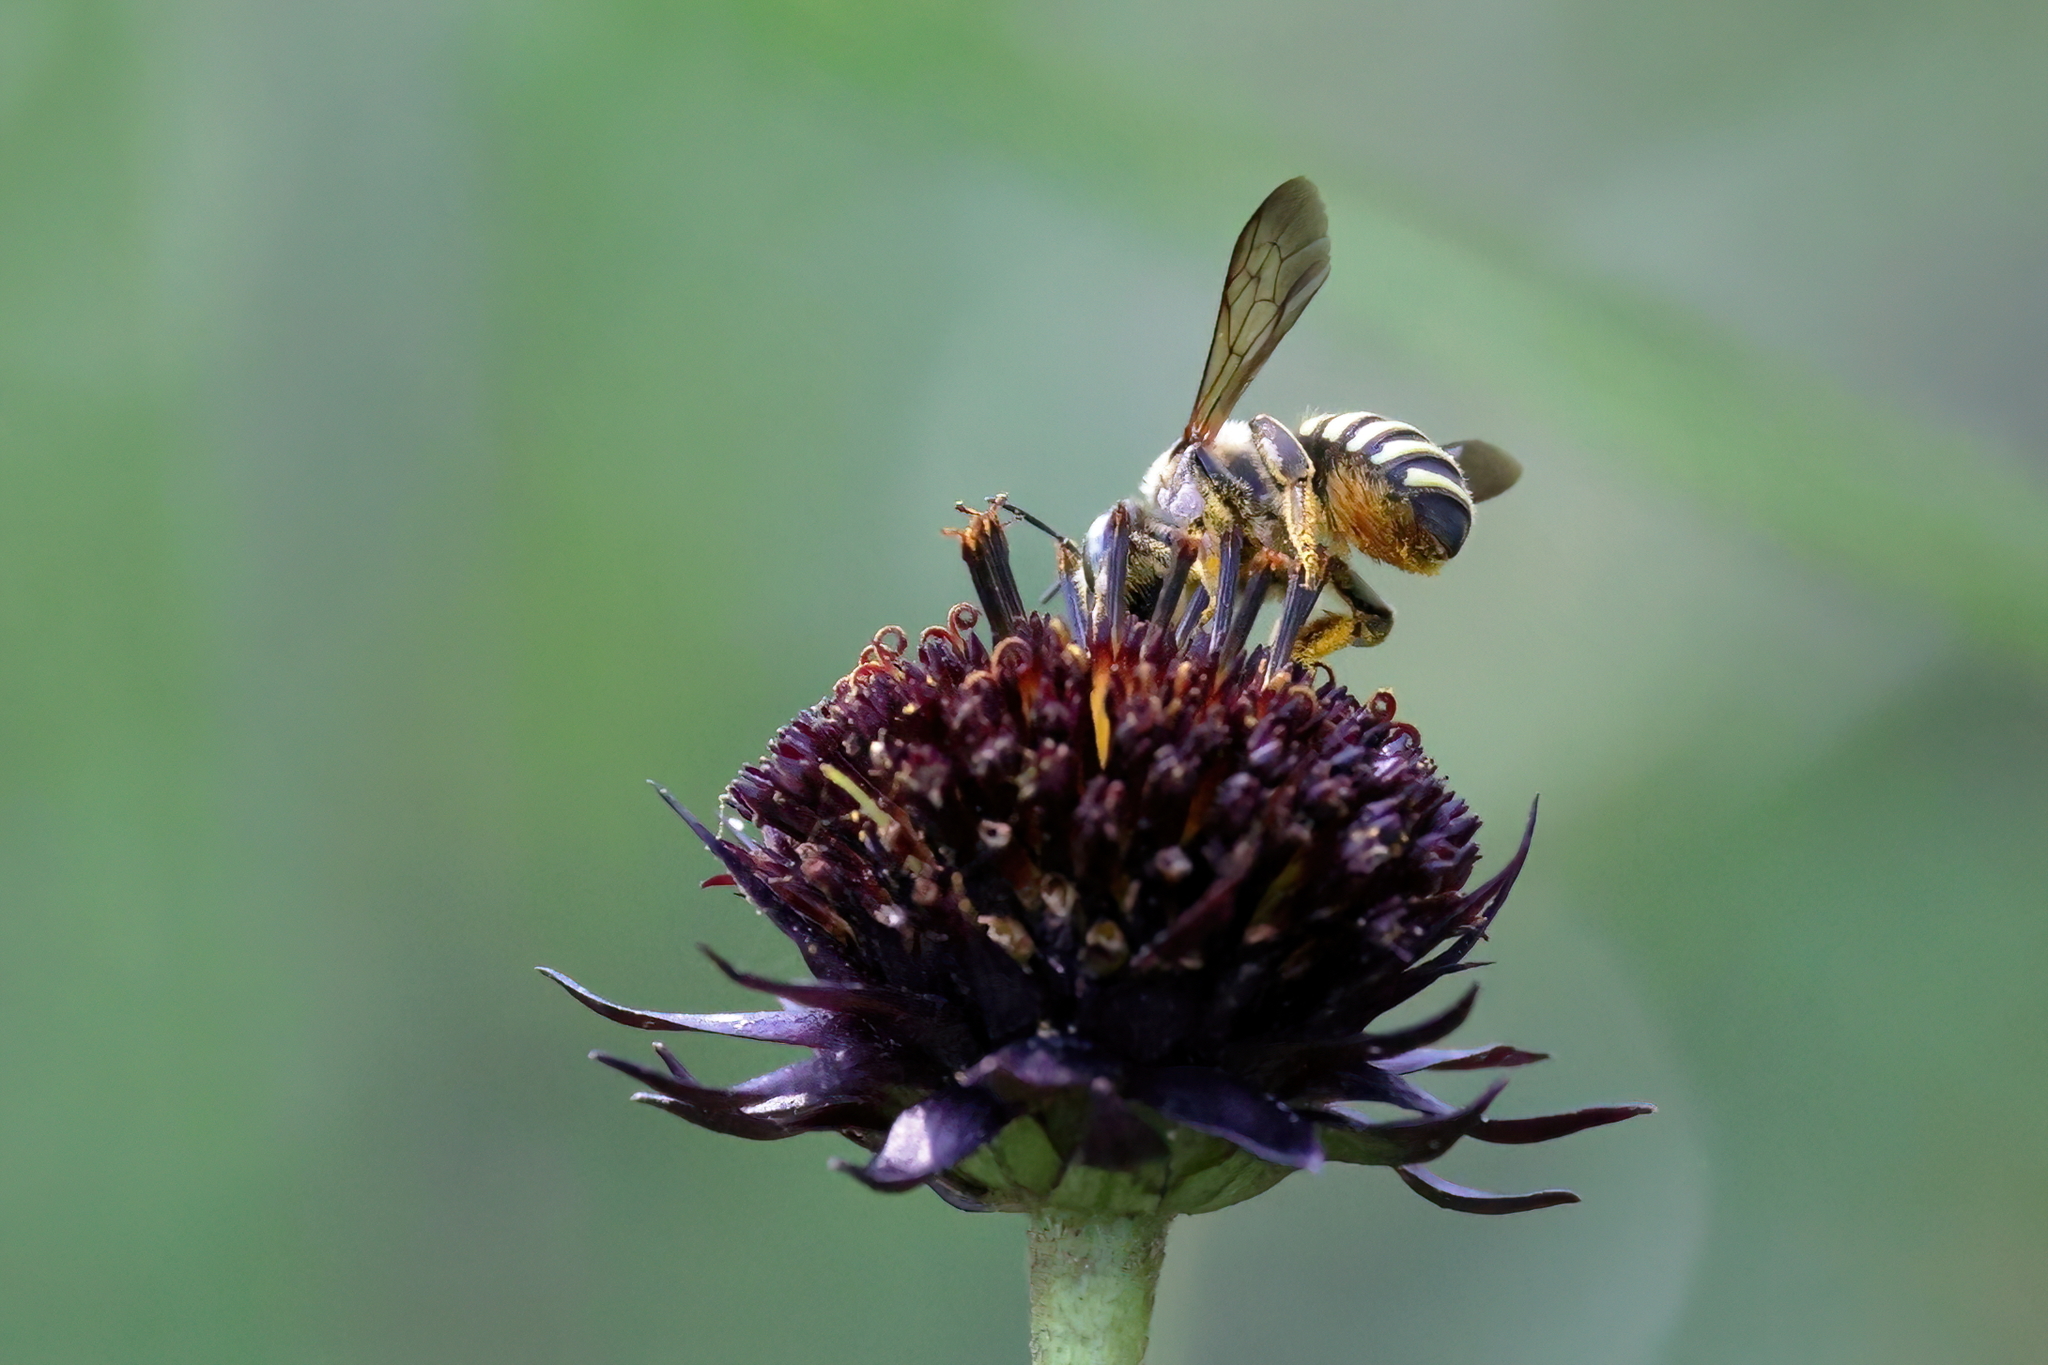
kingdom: Animalia
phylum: Arthropoda
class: Insecta
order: Hymenoptera
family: Megachilidae
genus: Trachusa
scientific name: Trachusa zebrata
